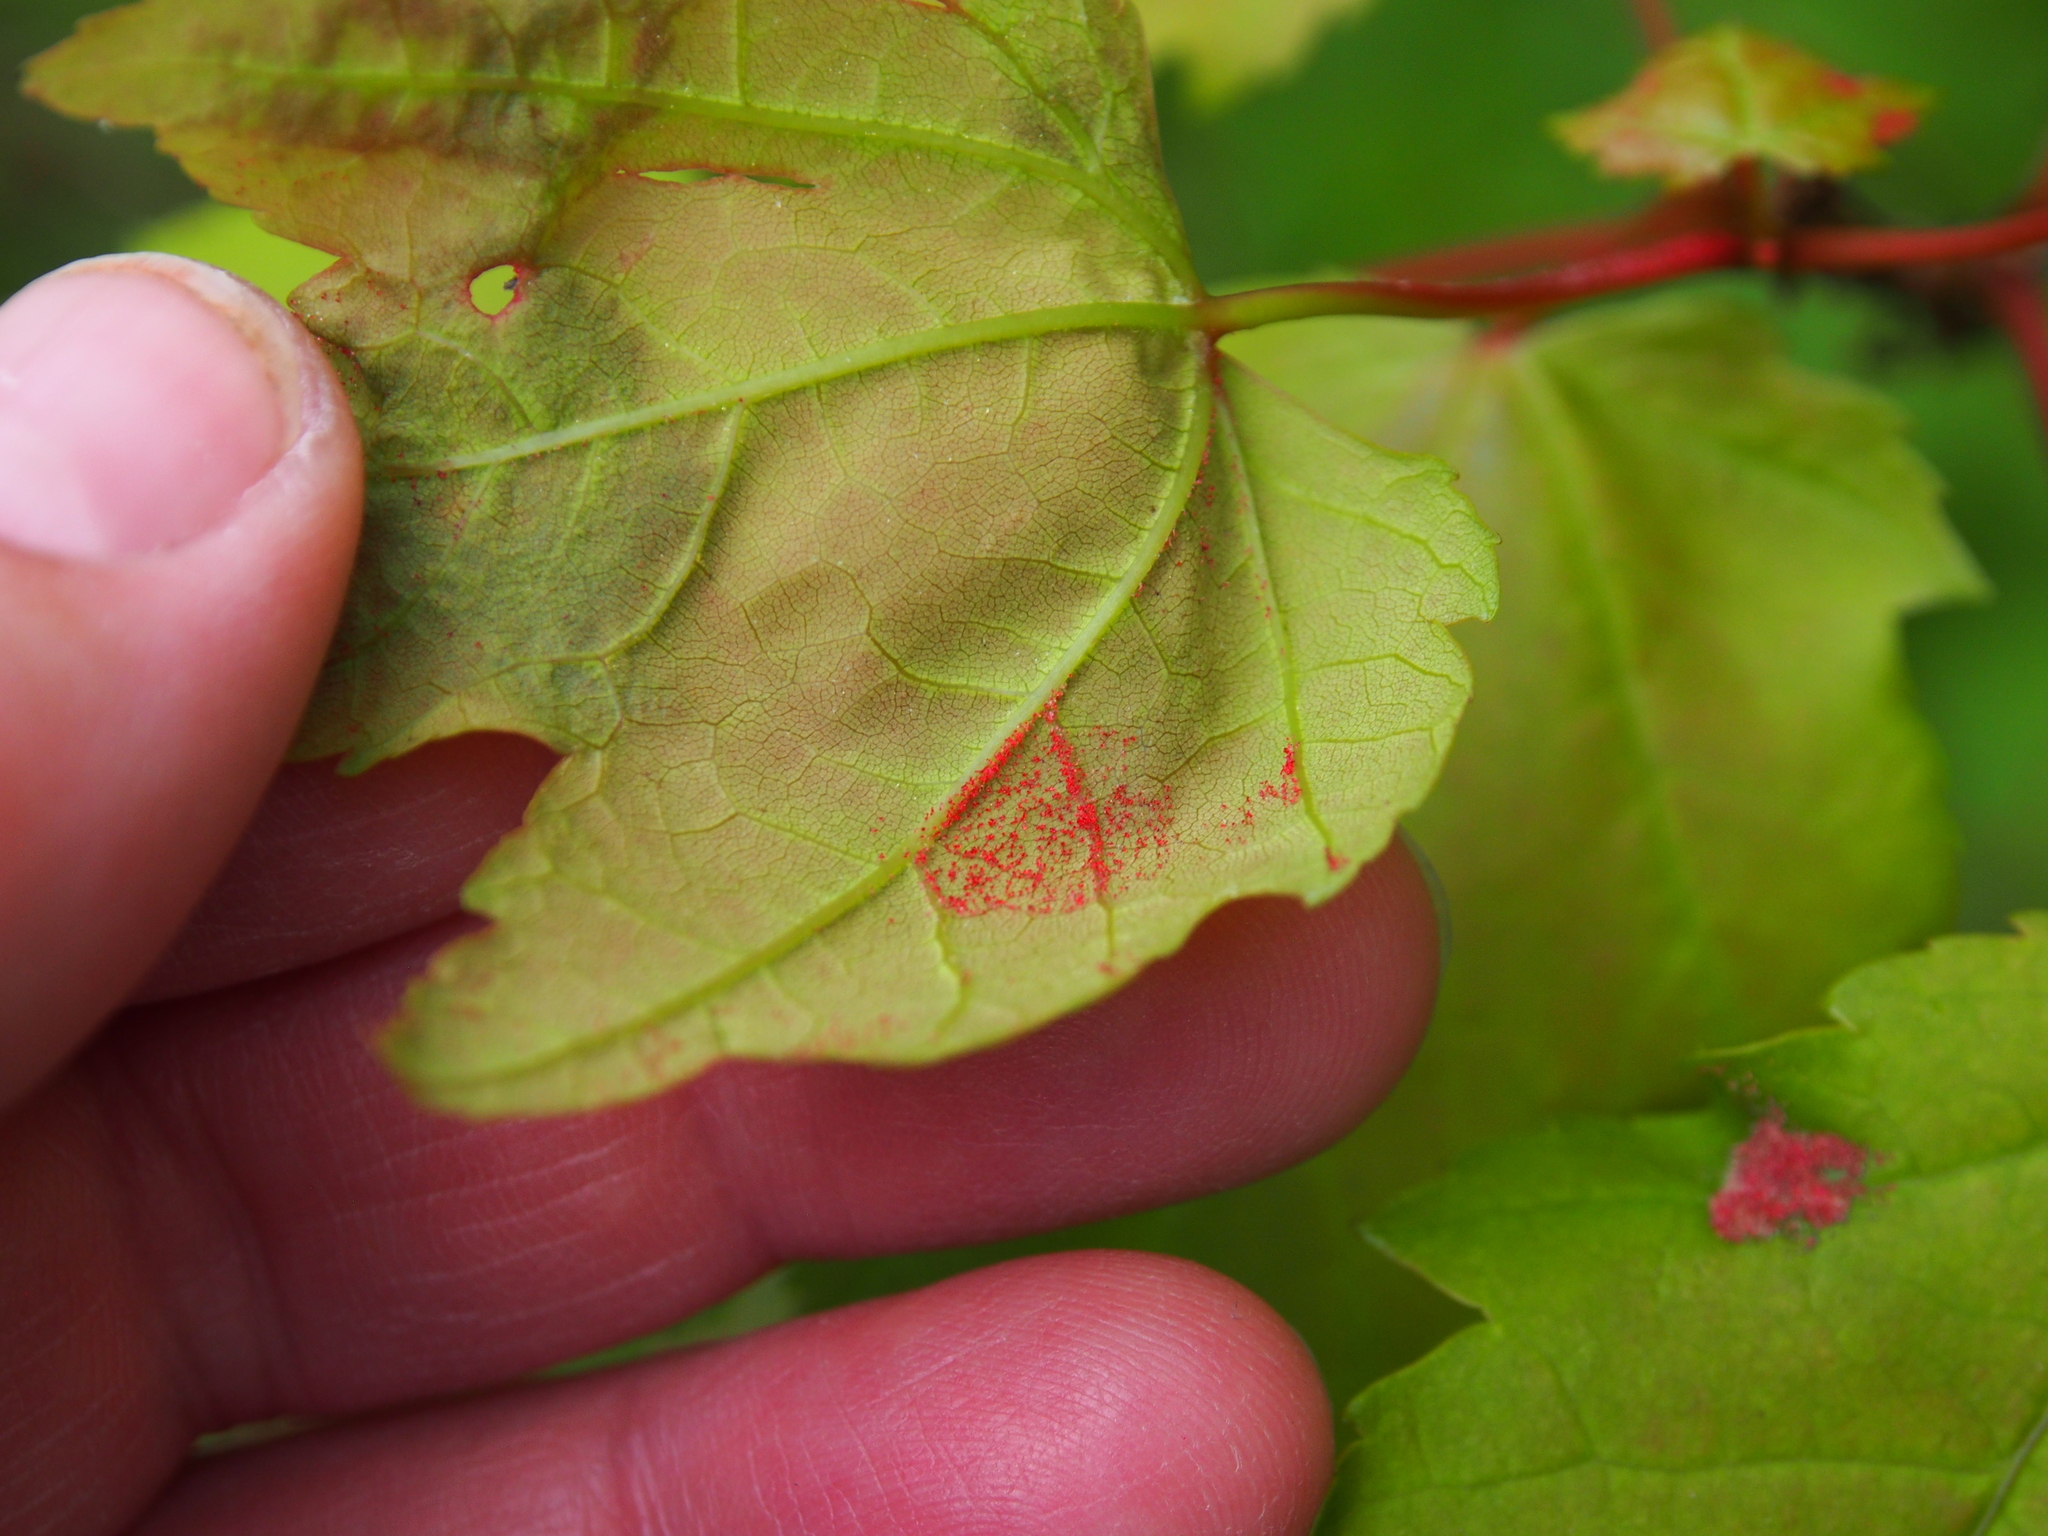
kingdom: Animalia
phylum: Arthropoda
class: Arachnida
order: Trombidiformes
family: Eriophyidae
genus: Aculus
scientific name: Aculus
